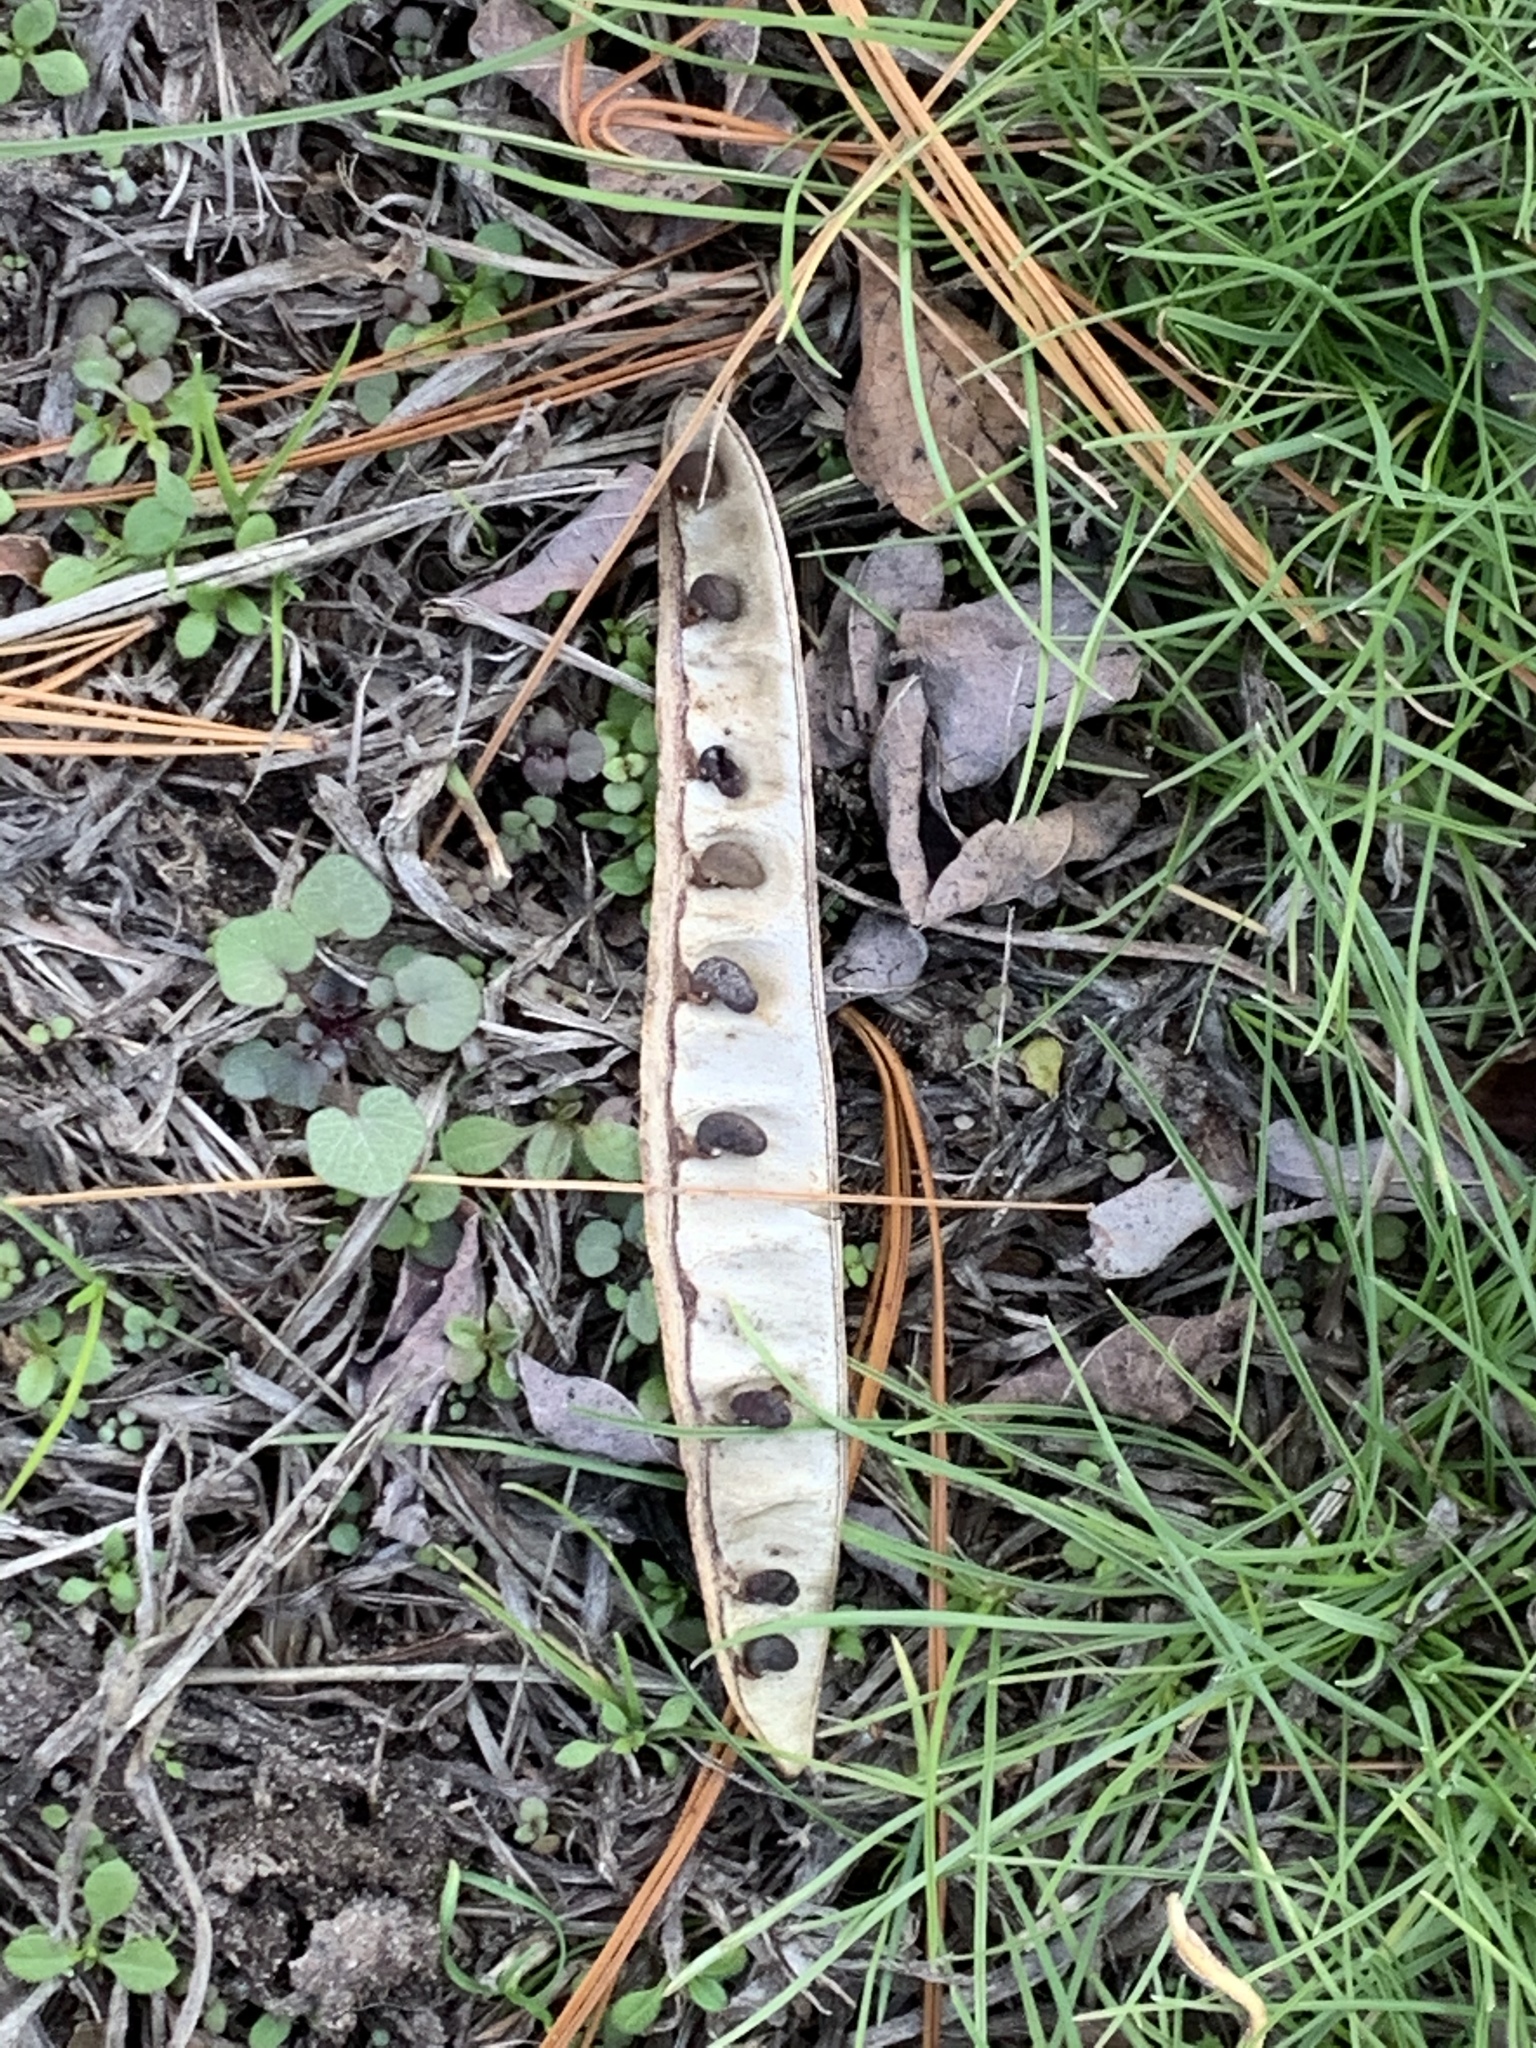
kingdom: Plantae
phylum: Tracheophyta
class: Magnoliopsida
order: Fabales
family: Fabaceae
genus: Robinia
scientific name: Robinia pseudoacacia
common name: Black locust
